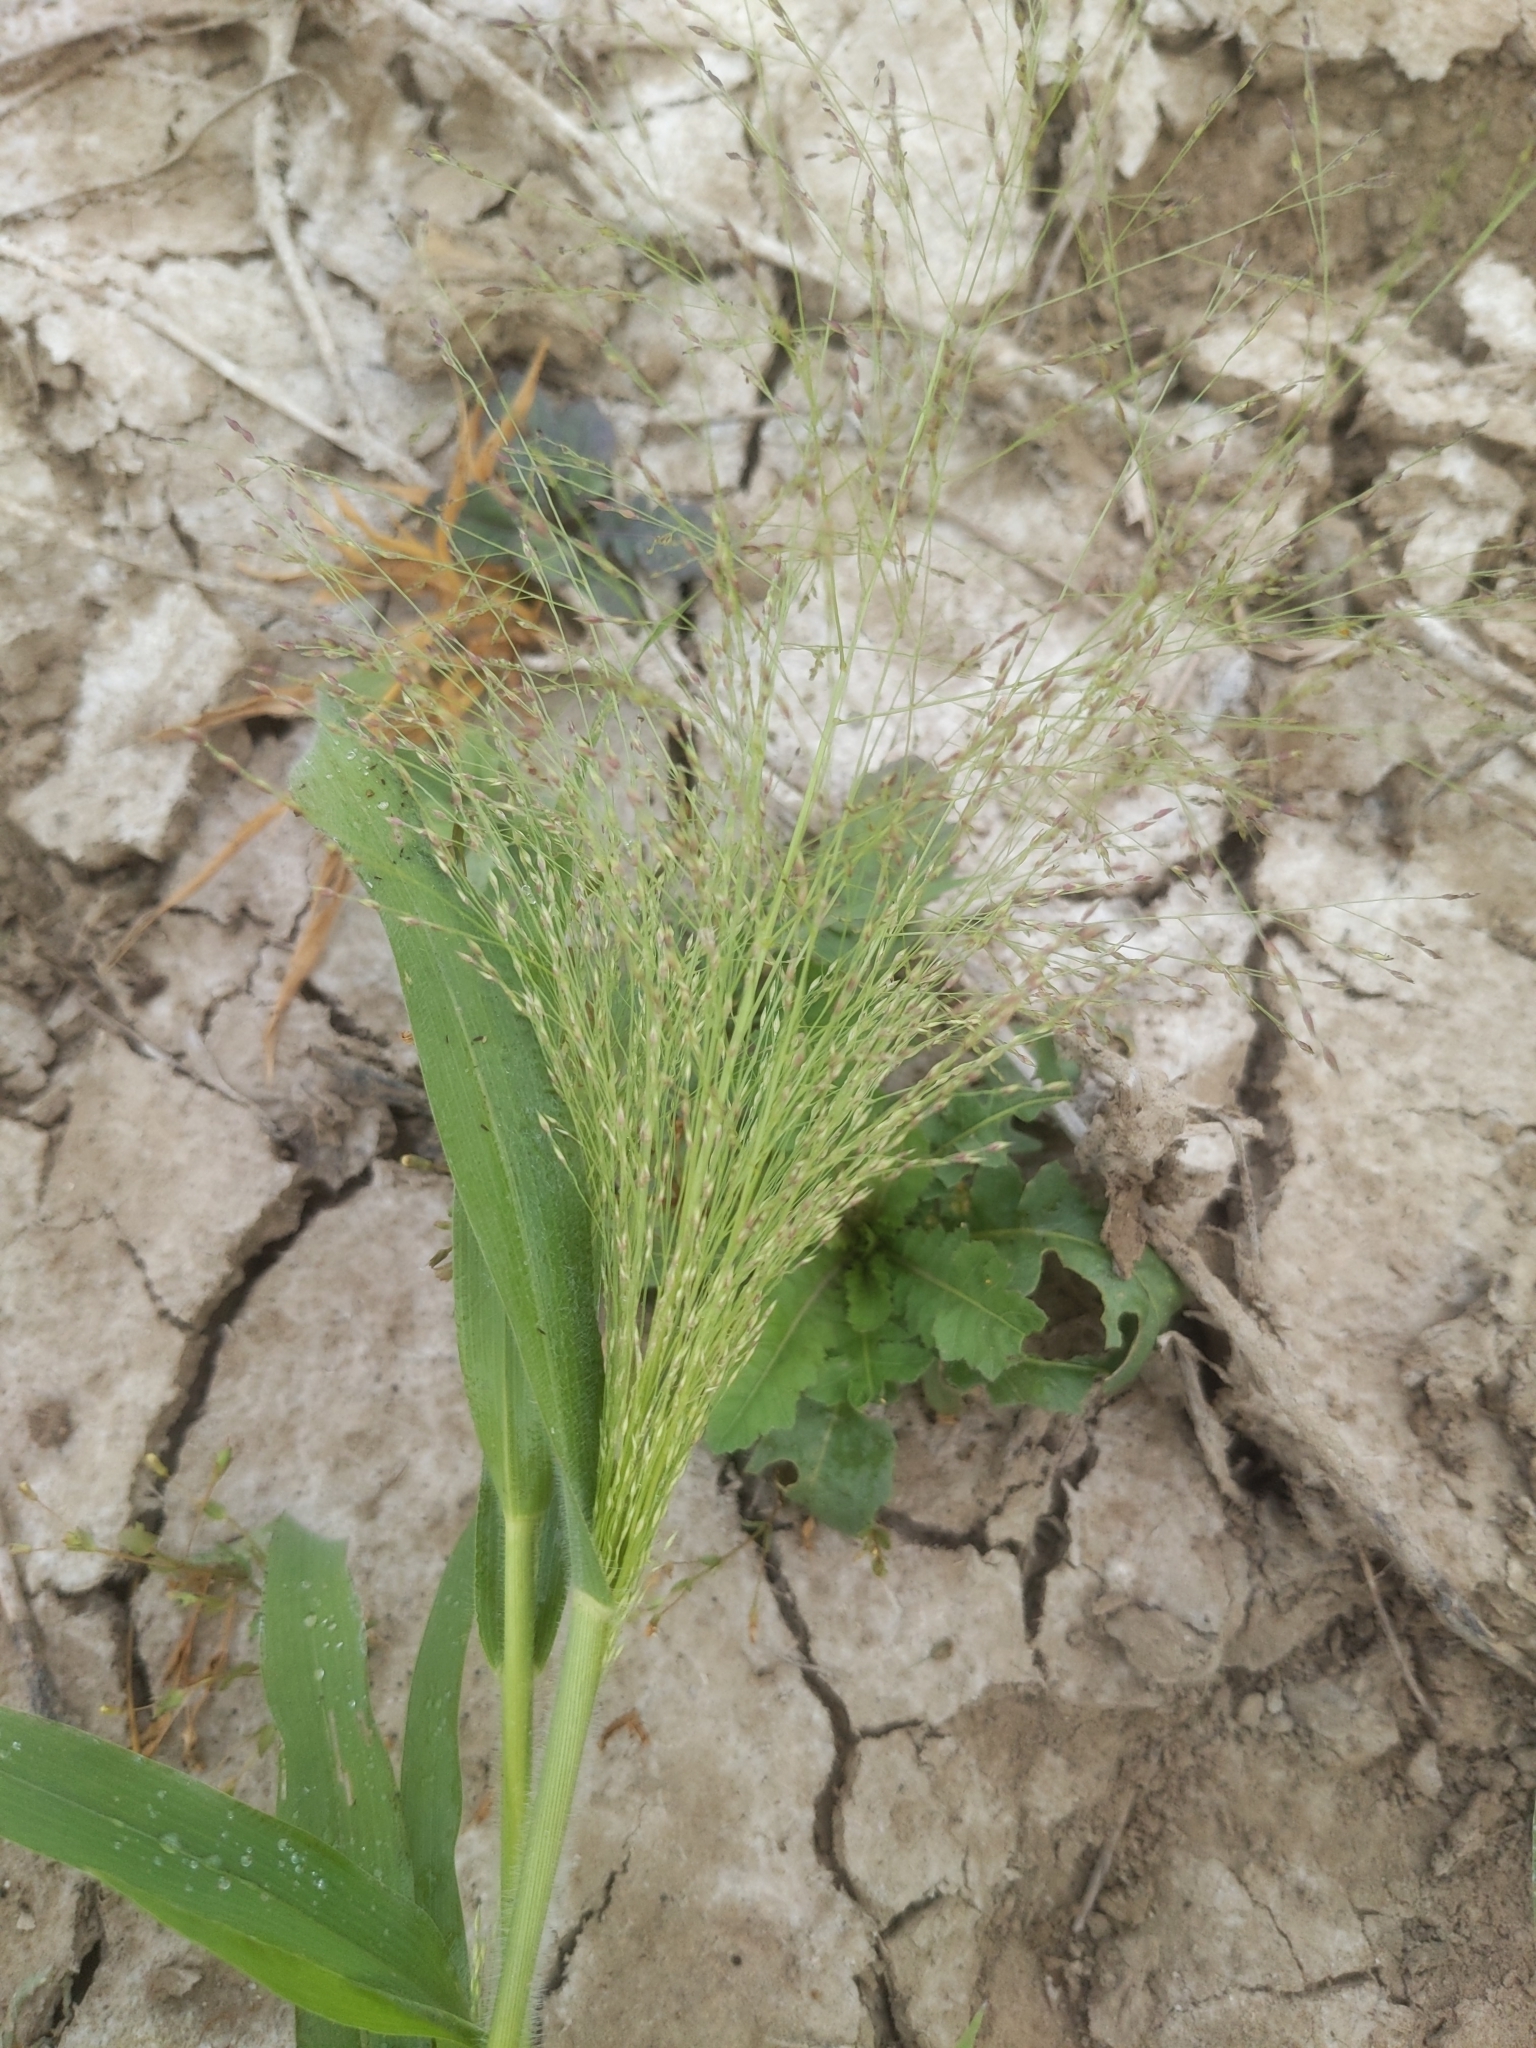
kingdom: Plantae
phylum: Tracheophyta
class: Liliopsida
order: Poales
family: Poaceae
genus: Panicum
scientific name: Panicum capillare
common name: Witch-grass
